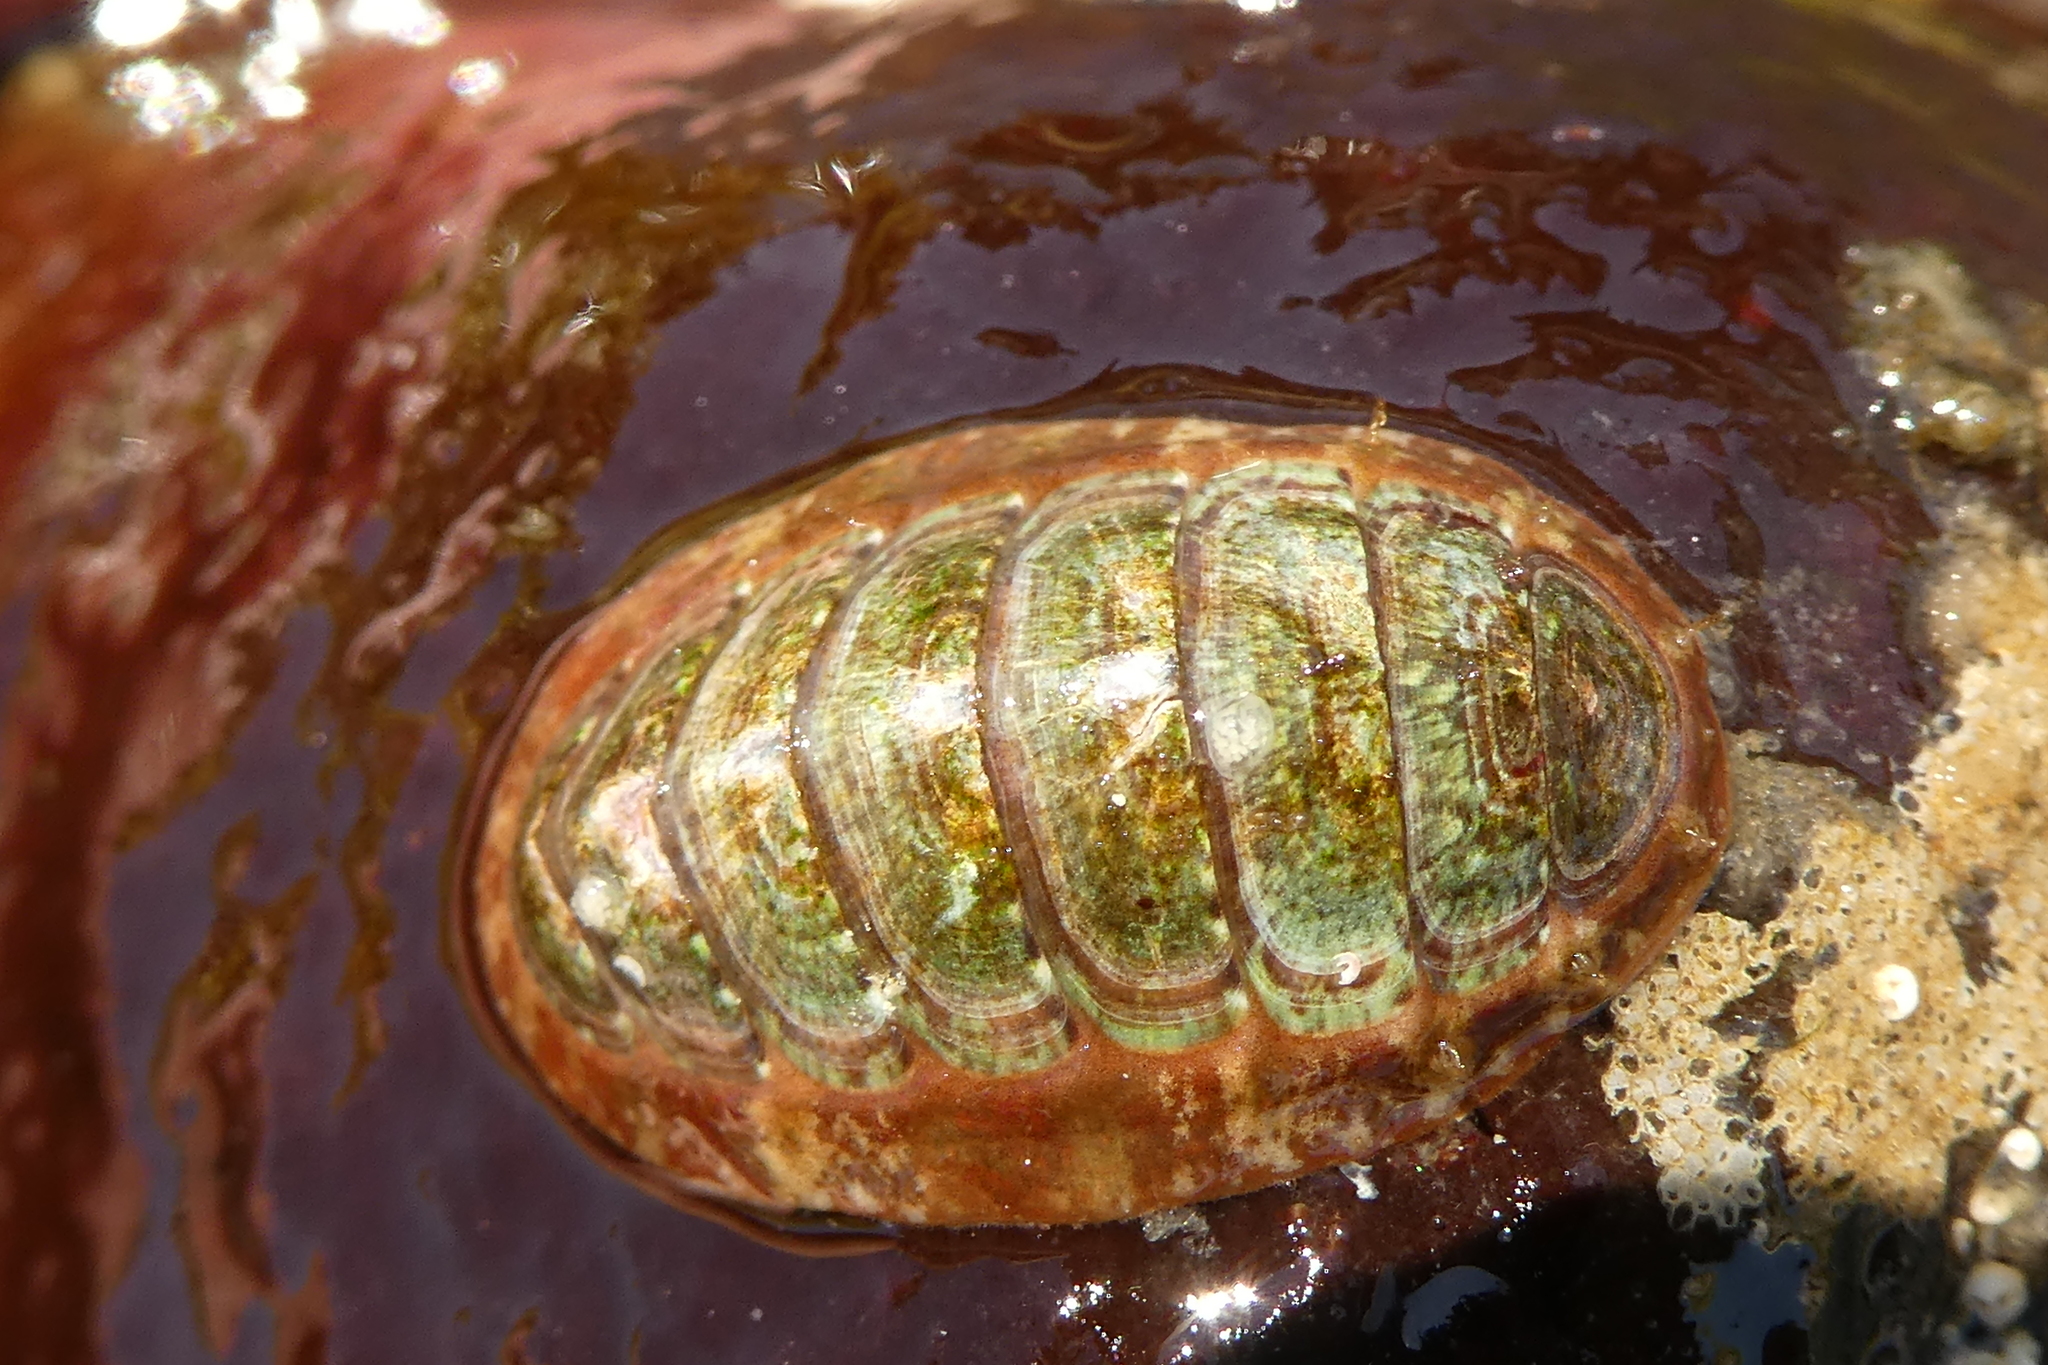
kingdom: Animalia
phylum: Mollusca
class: Polyplacophora
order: Chitonida
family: Mopaliidae
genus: Dendrochiton
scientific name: Dendrochiton flectens
